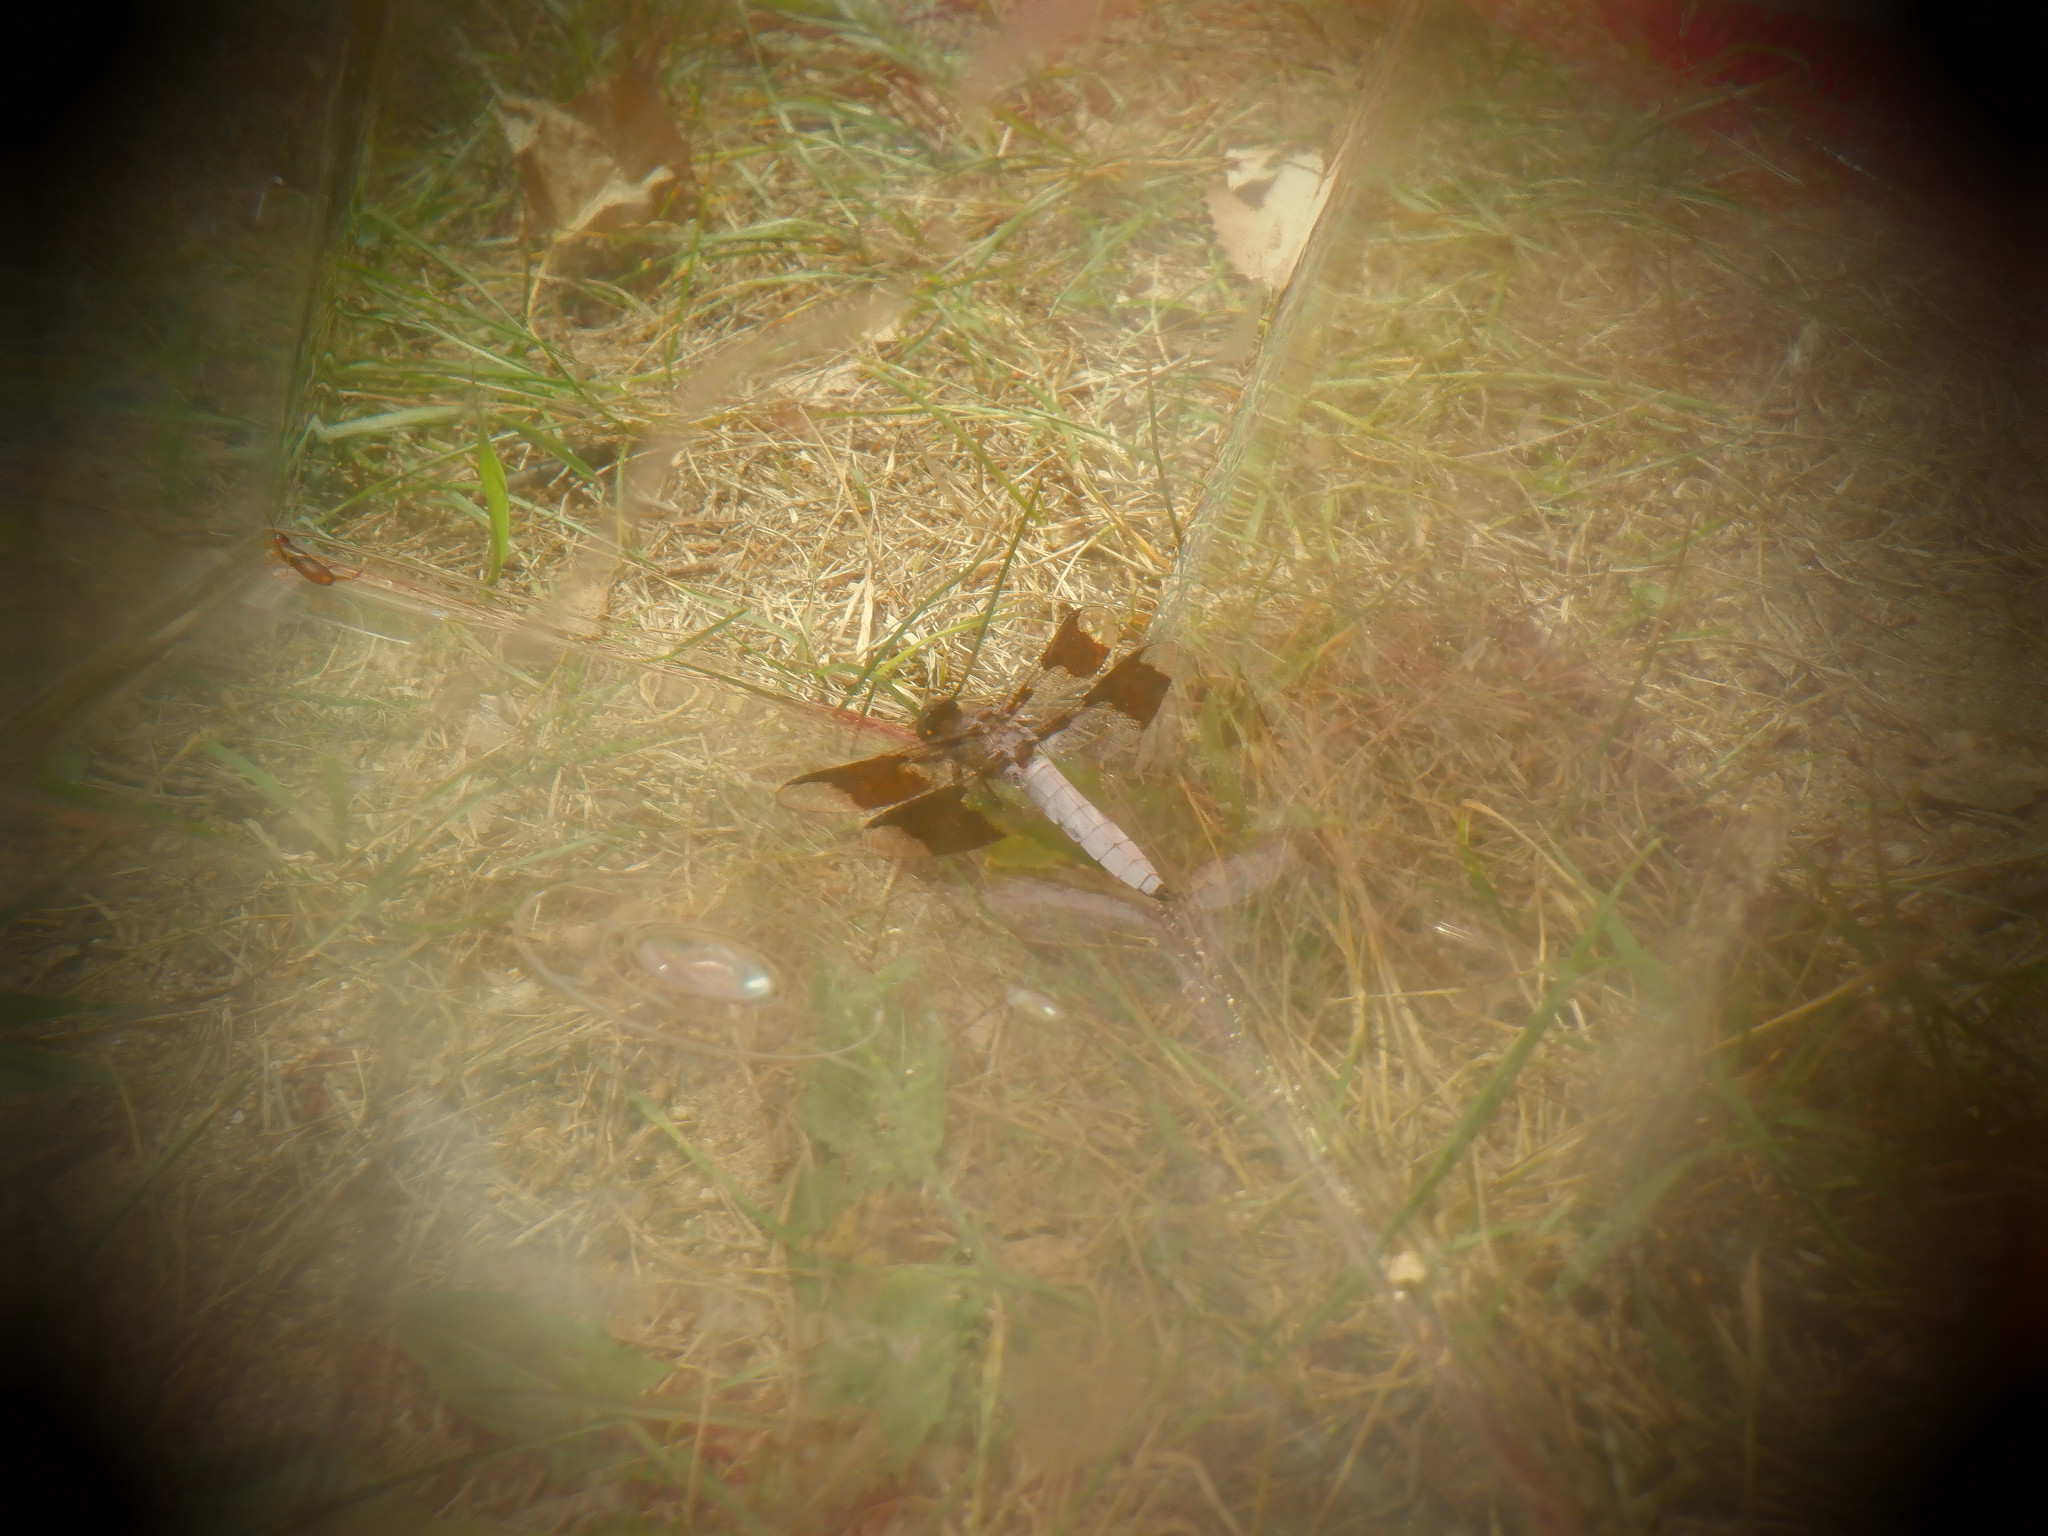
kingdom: Animalia
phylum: Arthropoda
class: Insecta
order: Odonata
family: Libellulidae
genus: Plathemis
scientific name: Plathemis lydia
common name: Common whitetail
